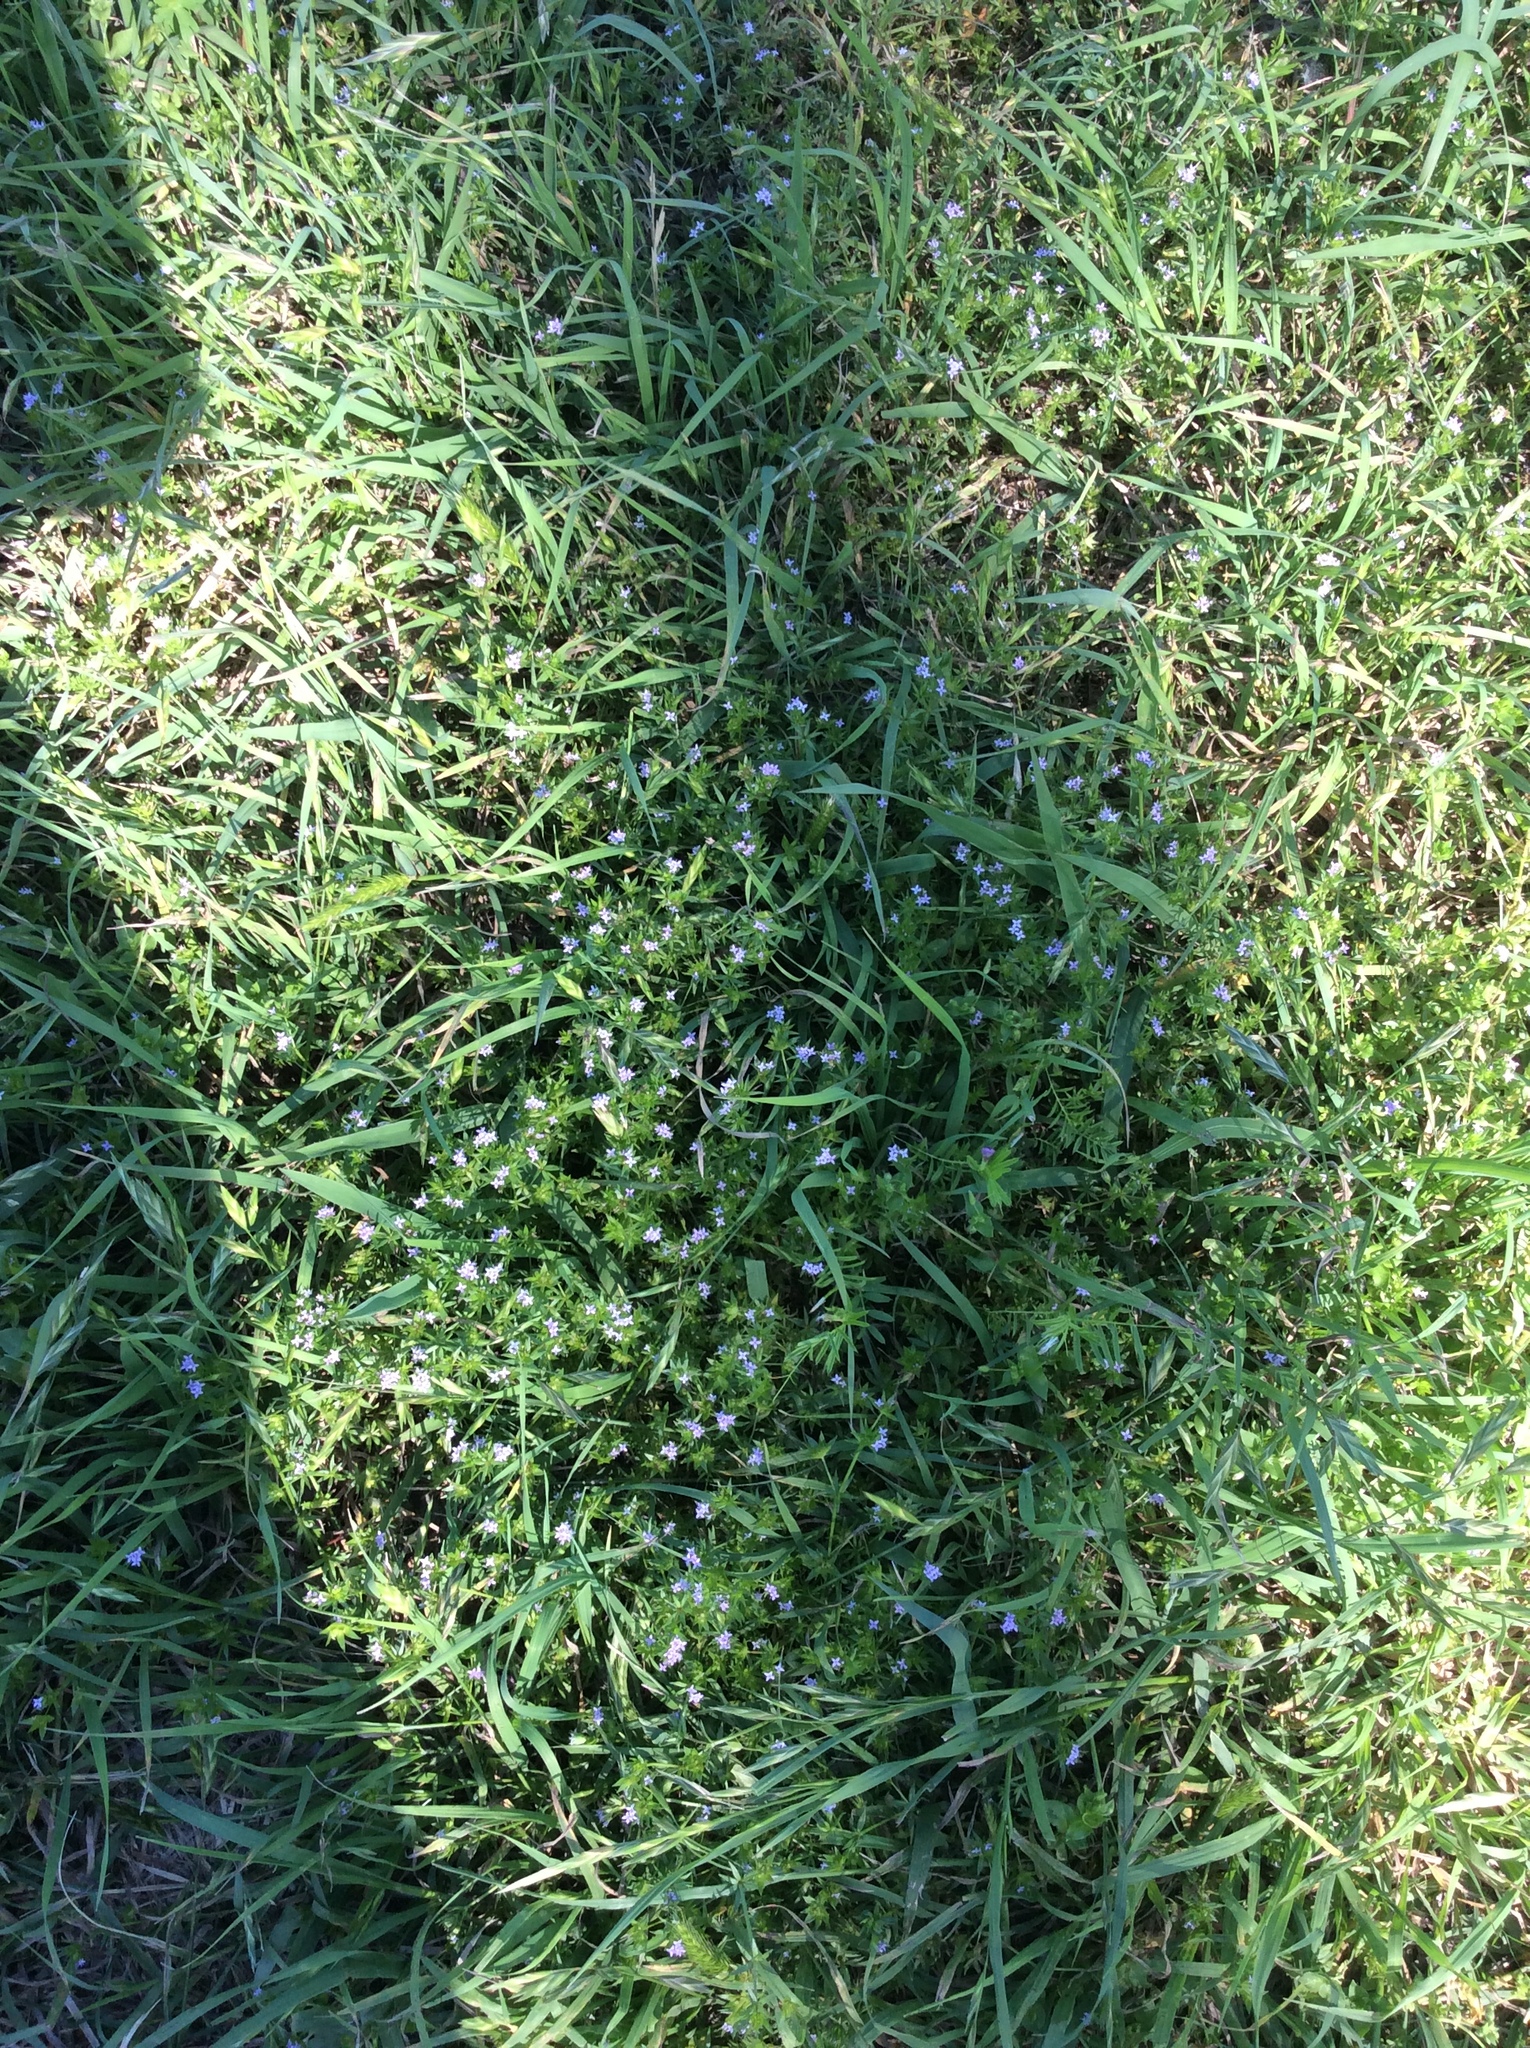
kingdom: Plantae
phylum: Tracheophyta
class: Magnoliopsida
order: Gentianales
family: Rubiaceae
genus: Sherardia
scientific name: Sherardia arvensis
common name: Field madder
